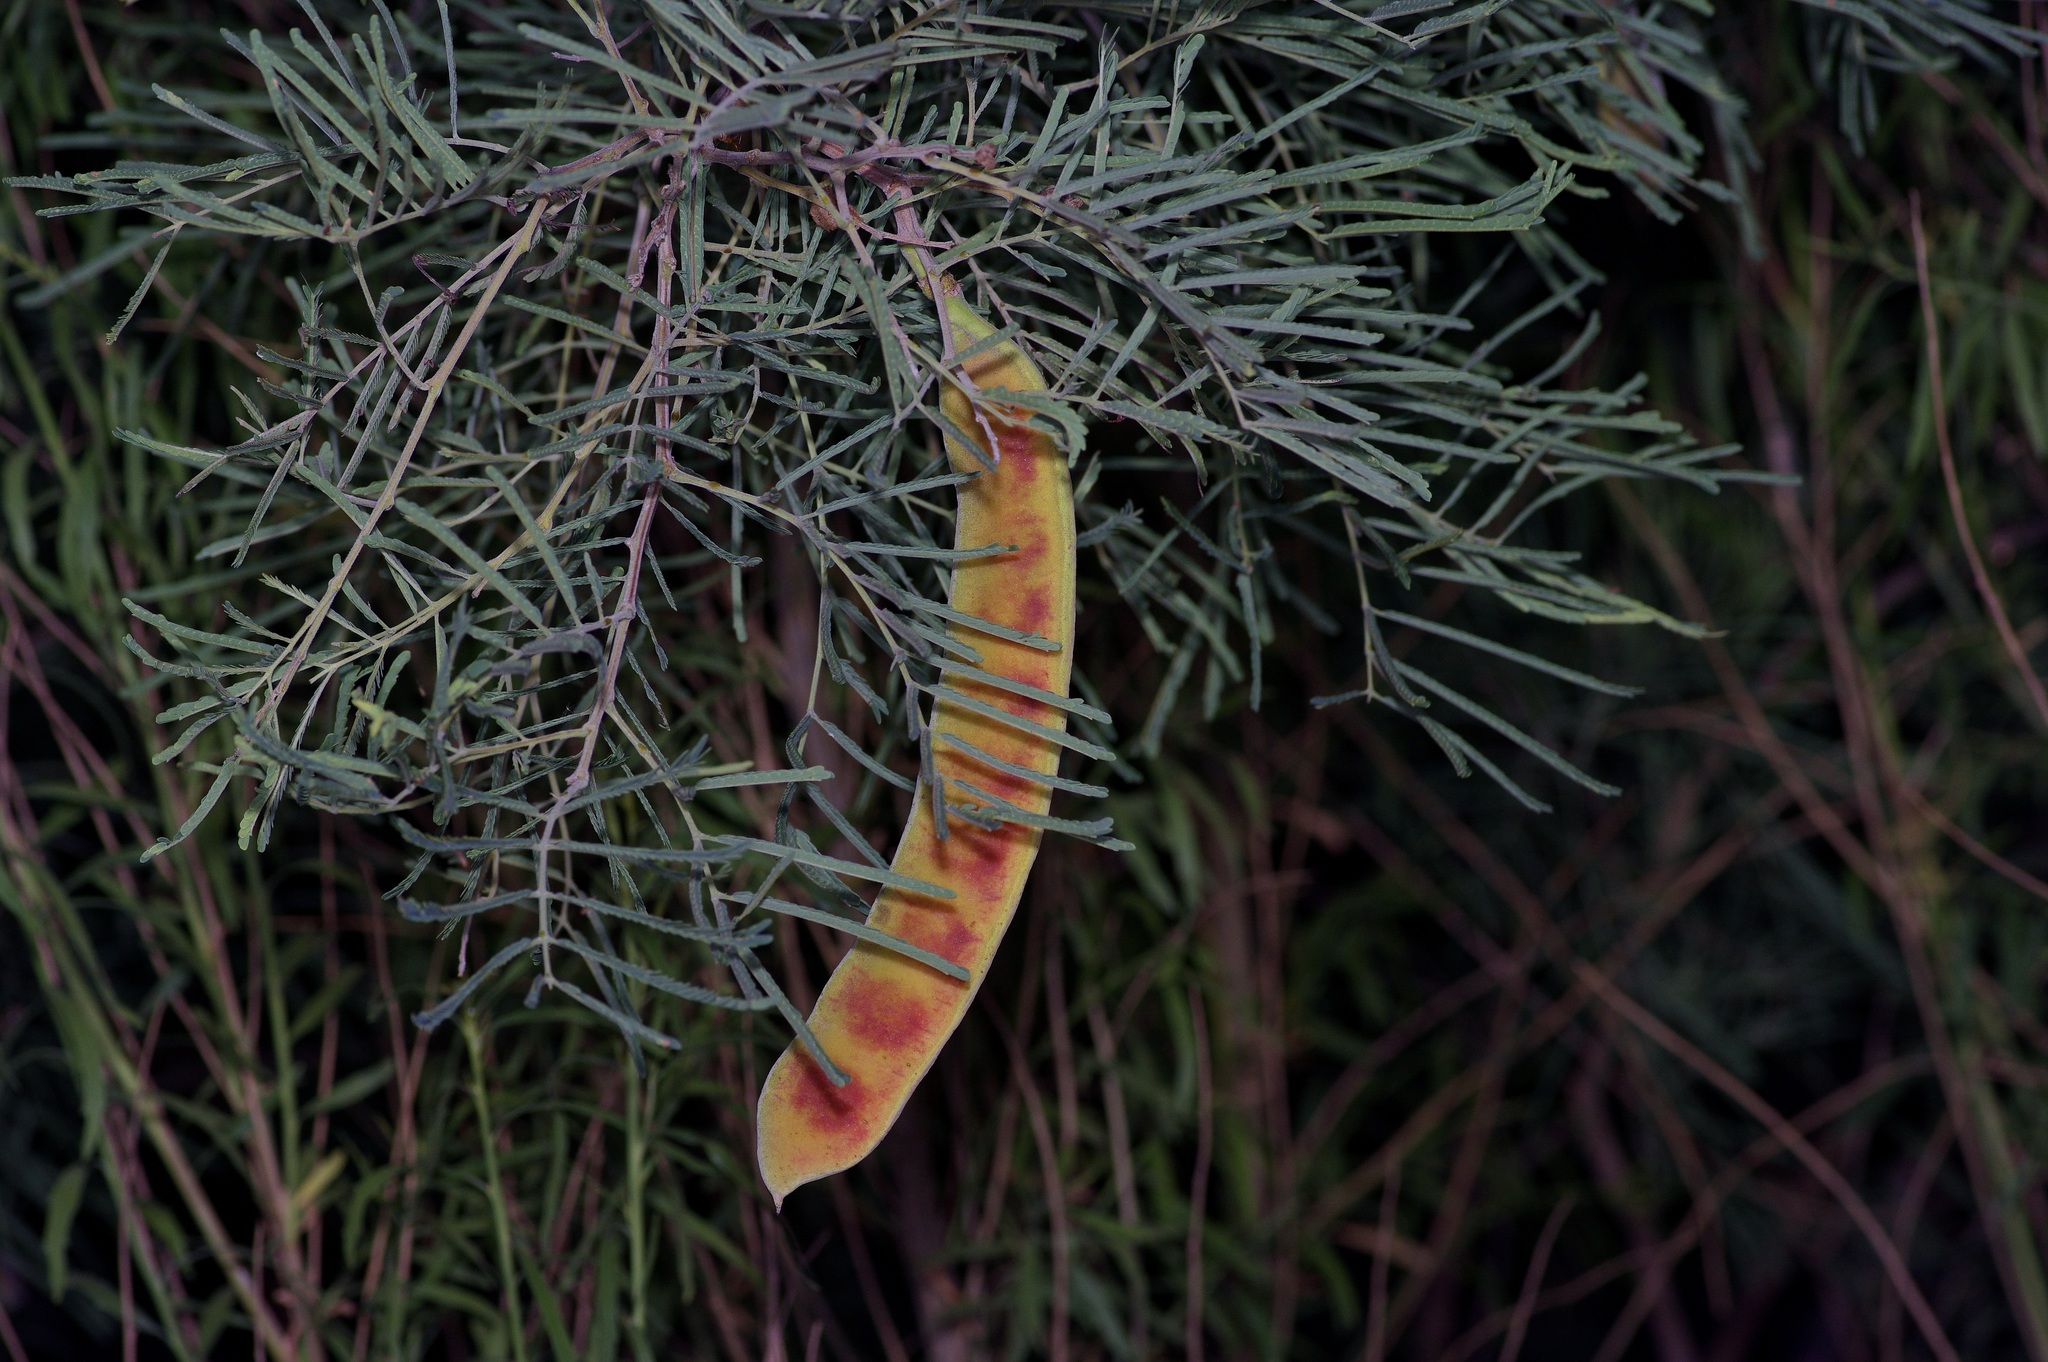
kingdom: Plantae
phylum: Tracheophyta
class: Magnoliopsida
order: Fabales
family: Fabaceae
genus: Senegalia
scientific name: Senegalia berlandieri
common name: Berlandier acacia
